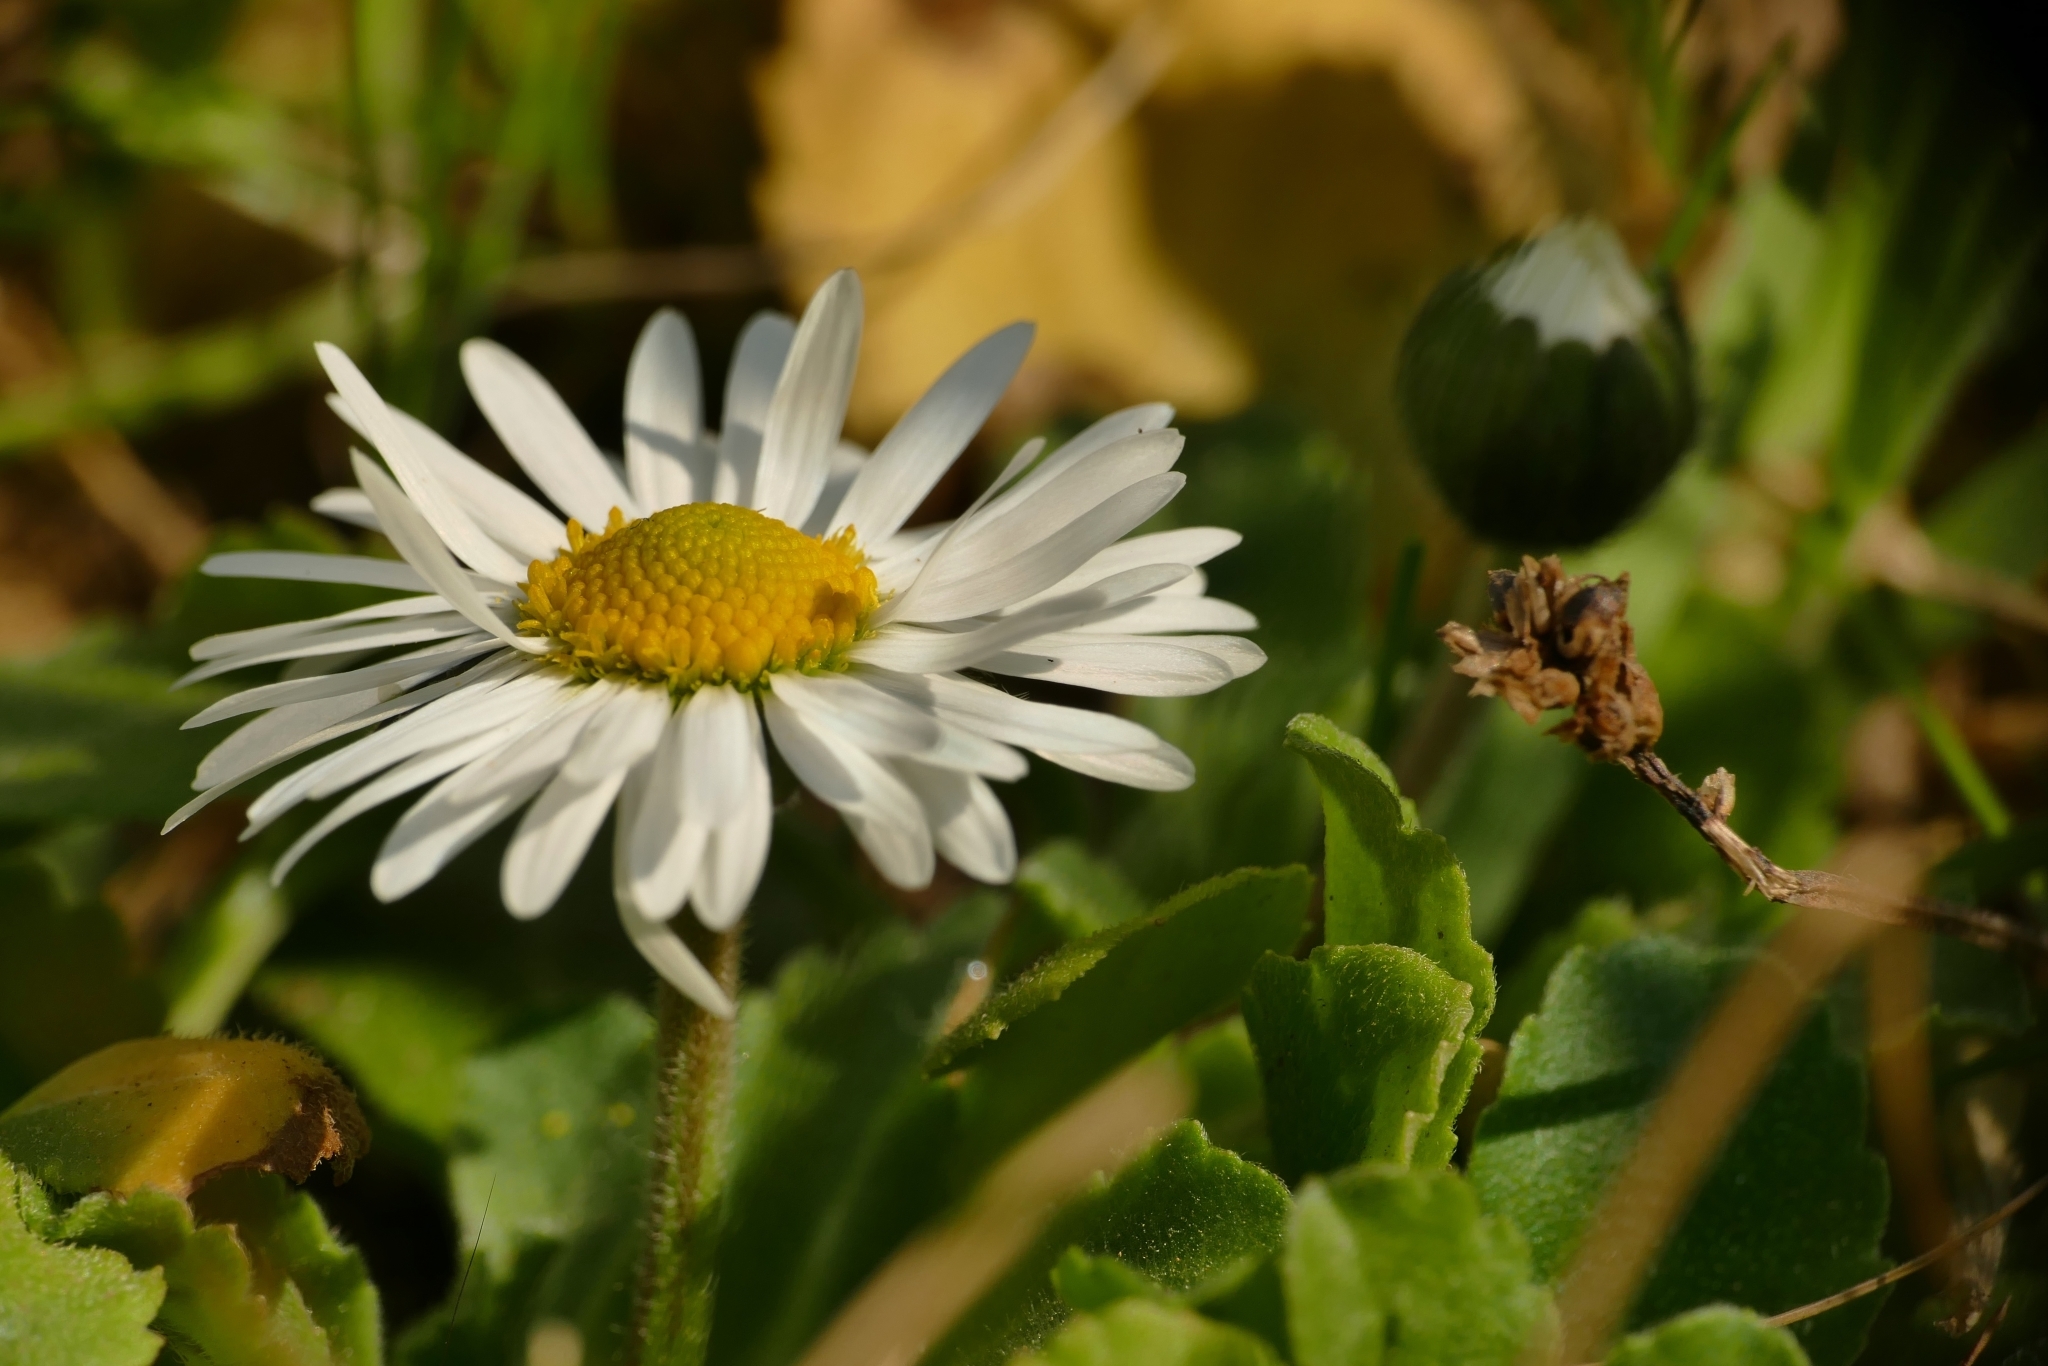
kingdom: Plantae
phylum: Tracheophyta
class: Magnoliopsida
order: Asterales
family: Asteraceae
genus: Bellis
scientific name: Bellis perennis
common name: Lawndaisy
